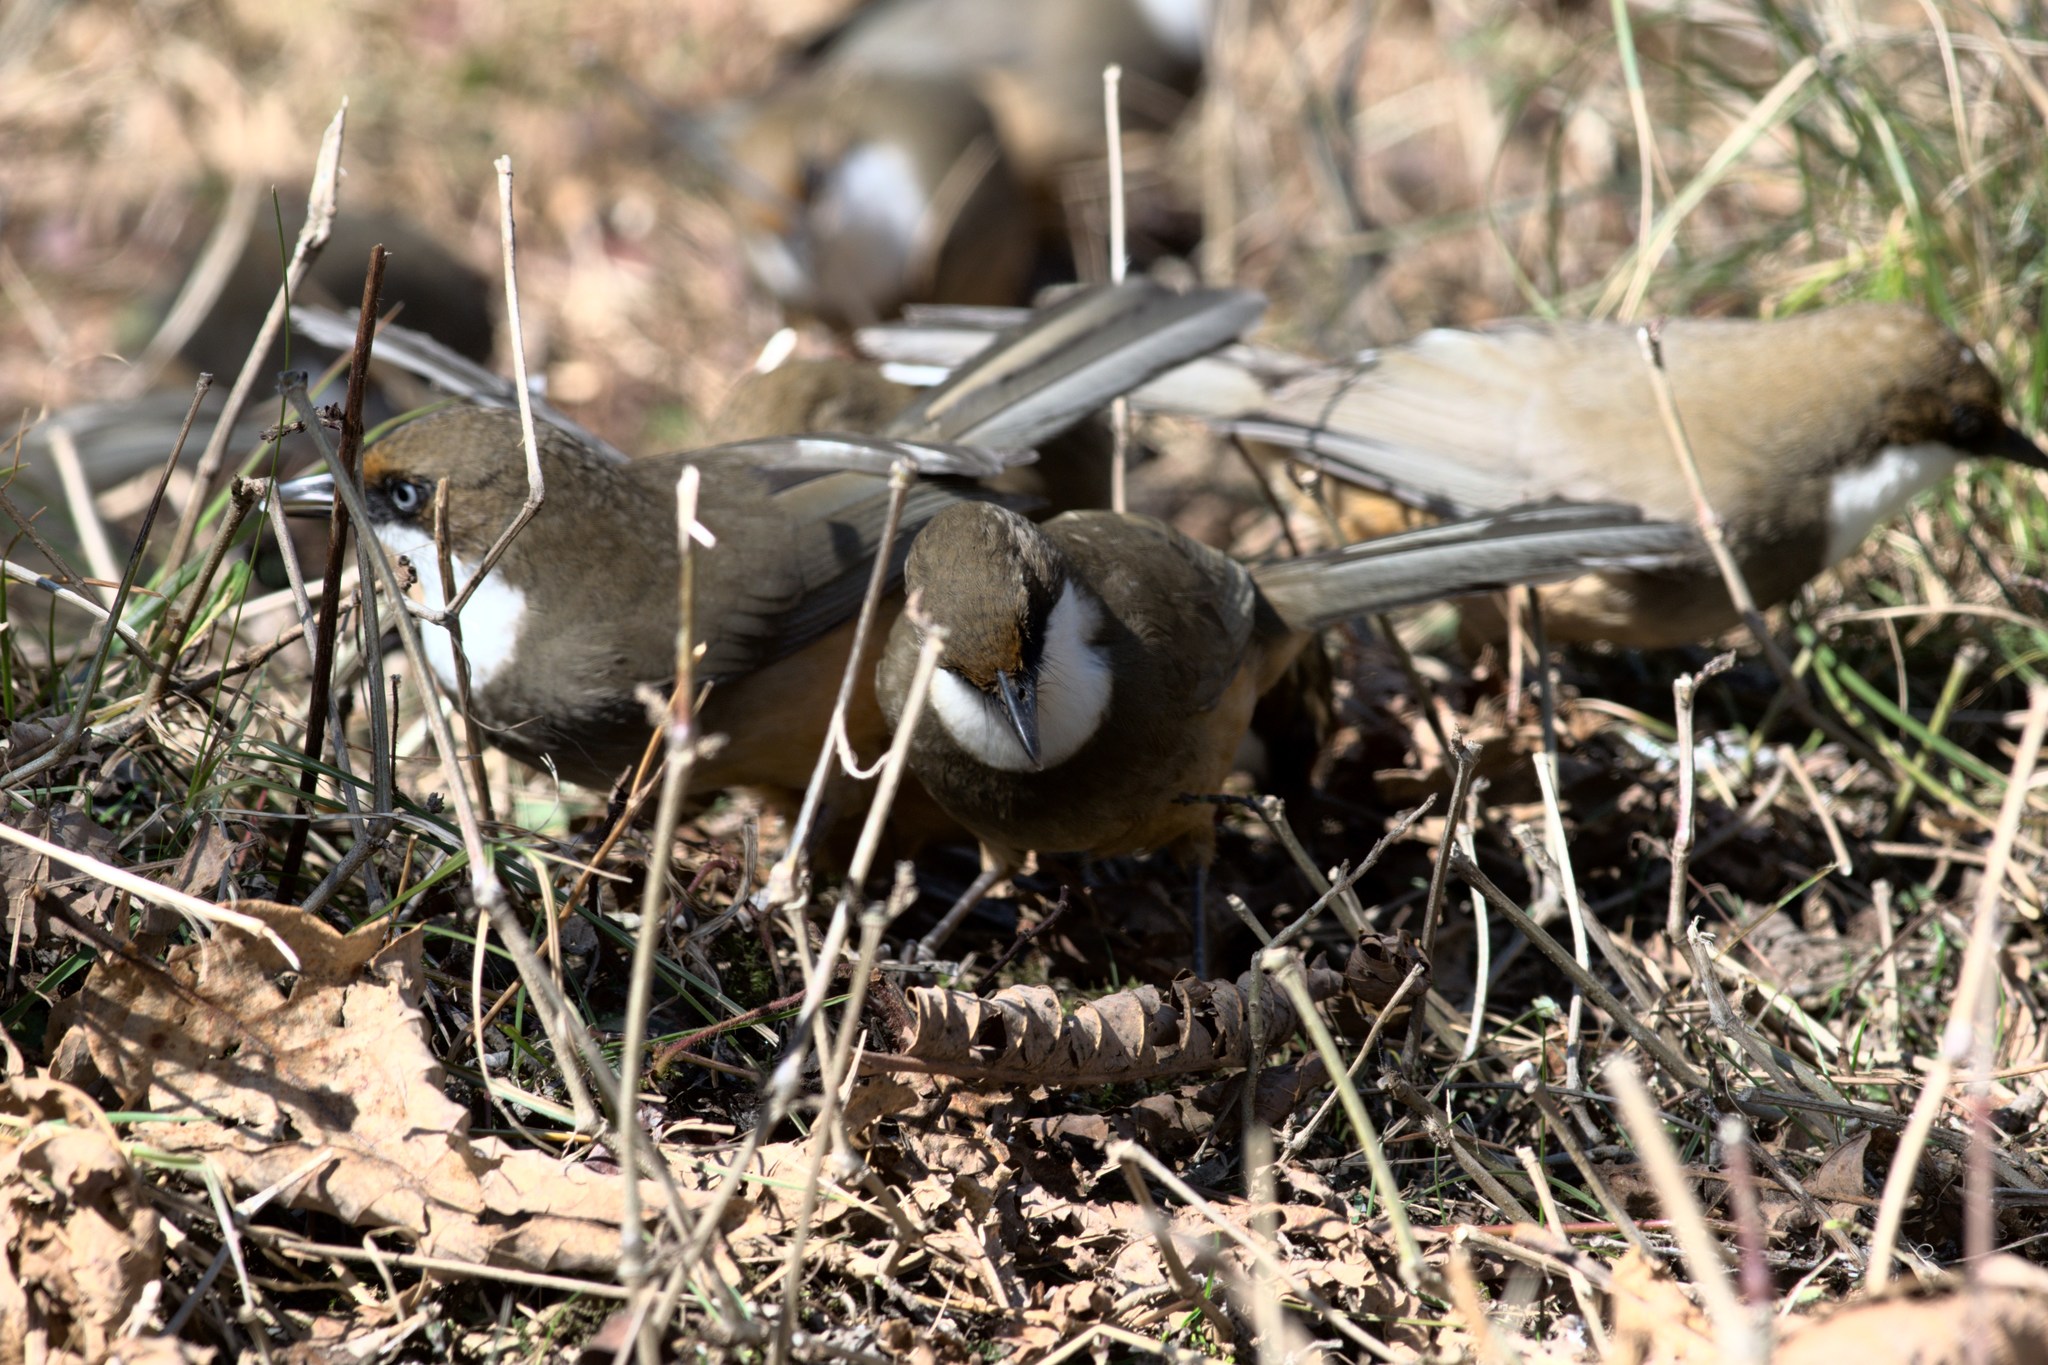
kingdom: Animalia
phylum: Chordata
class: Aves
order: Passeriformes
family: Leiothrichidae
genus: Garrulax
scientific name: Garrulax albogularis
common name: White-throated laughingthrush
